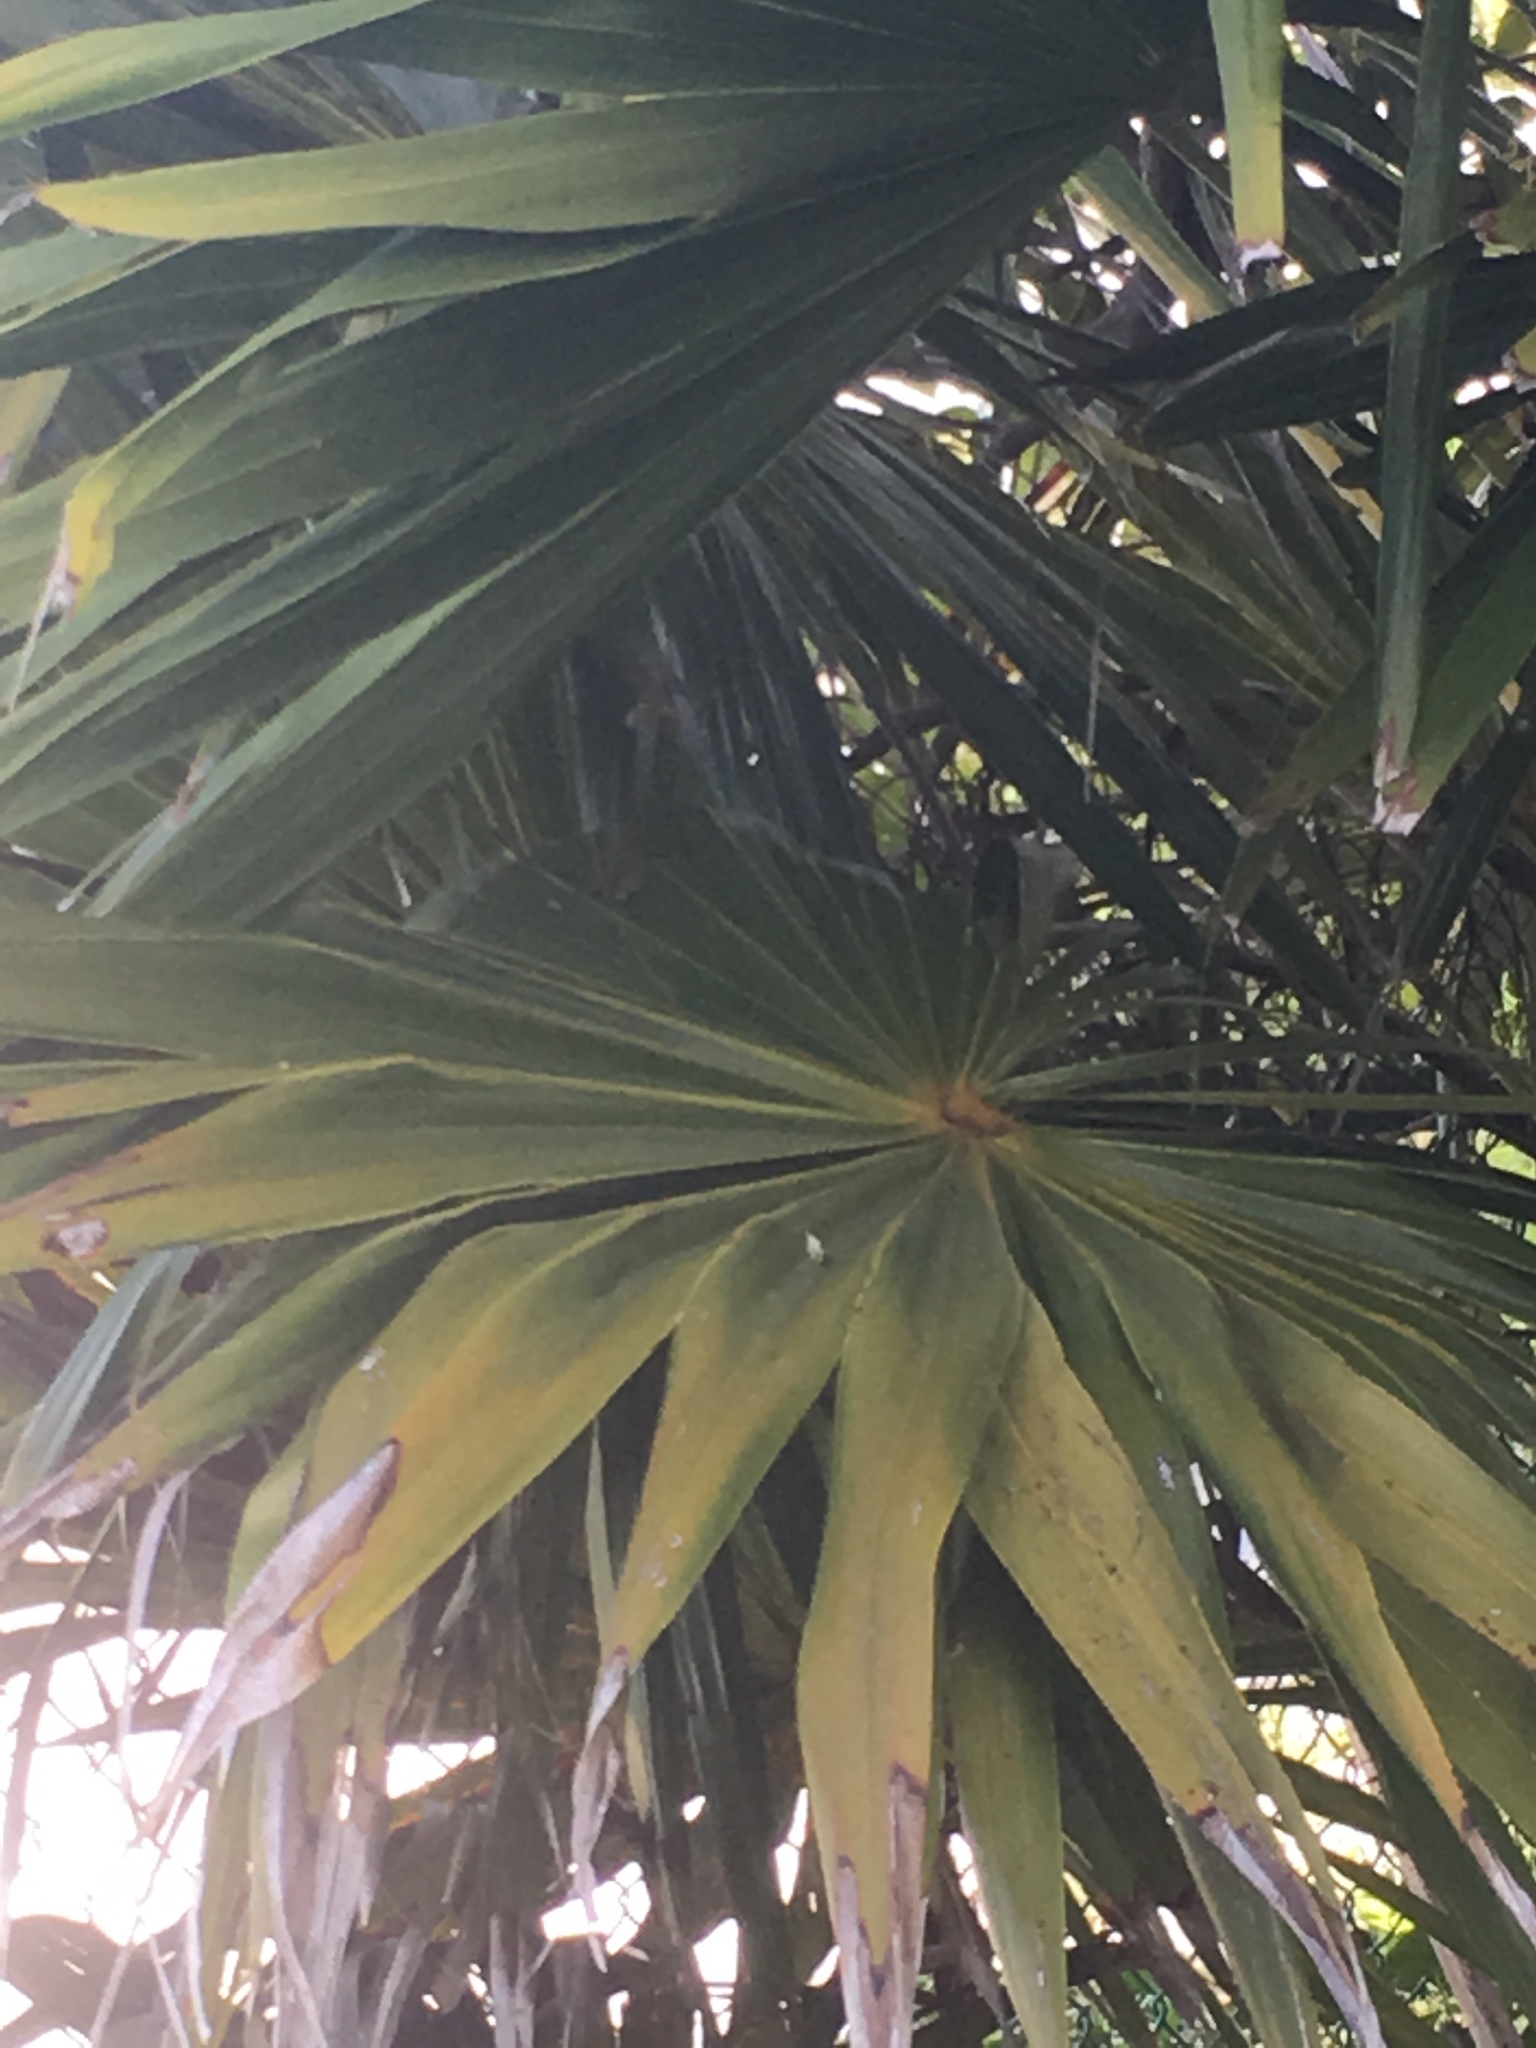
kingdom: Plantae
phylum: Tracheophyta
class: Liliopsida
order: Arecales
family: Arecaceae
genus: Sabal
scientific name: Sabal mexicana
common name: Texas palmetto
